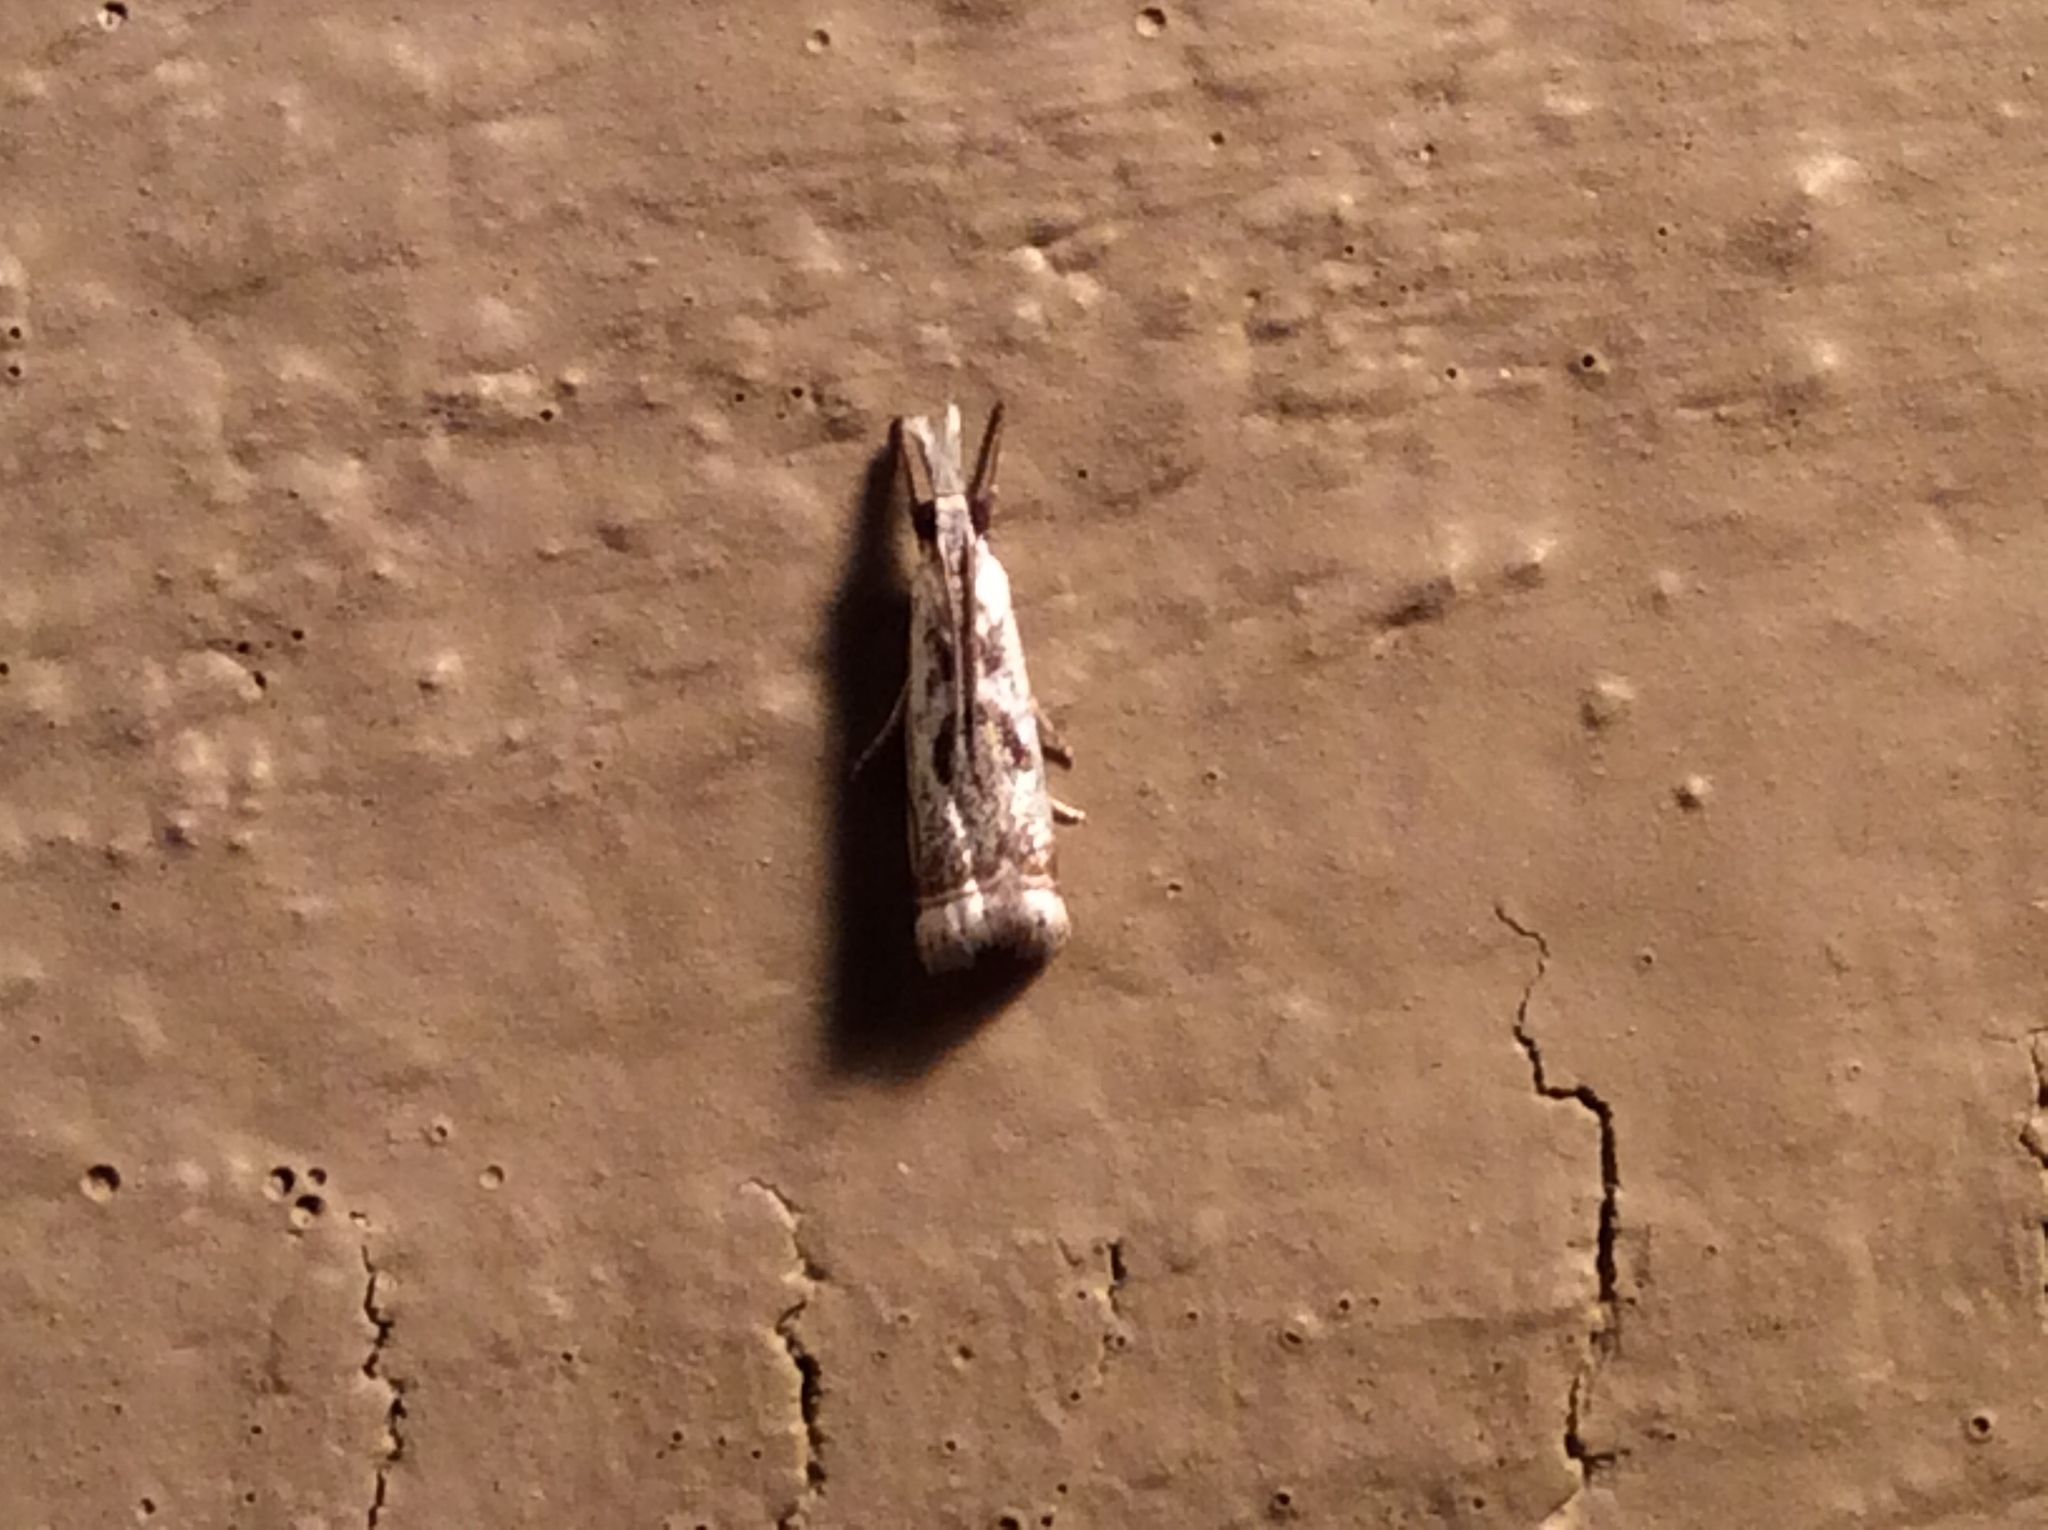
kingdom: Animalia
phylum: Arthropoda
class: Insecta
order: Lepidoptera
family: Crambidae
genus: Microcrambus
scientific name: Microcrambus elegans
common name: Elegant grass-veneer
